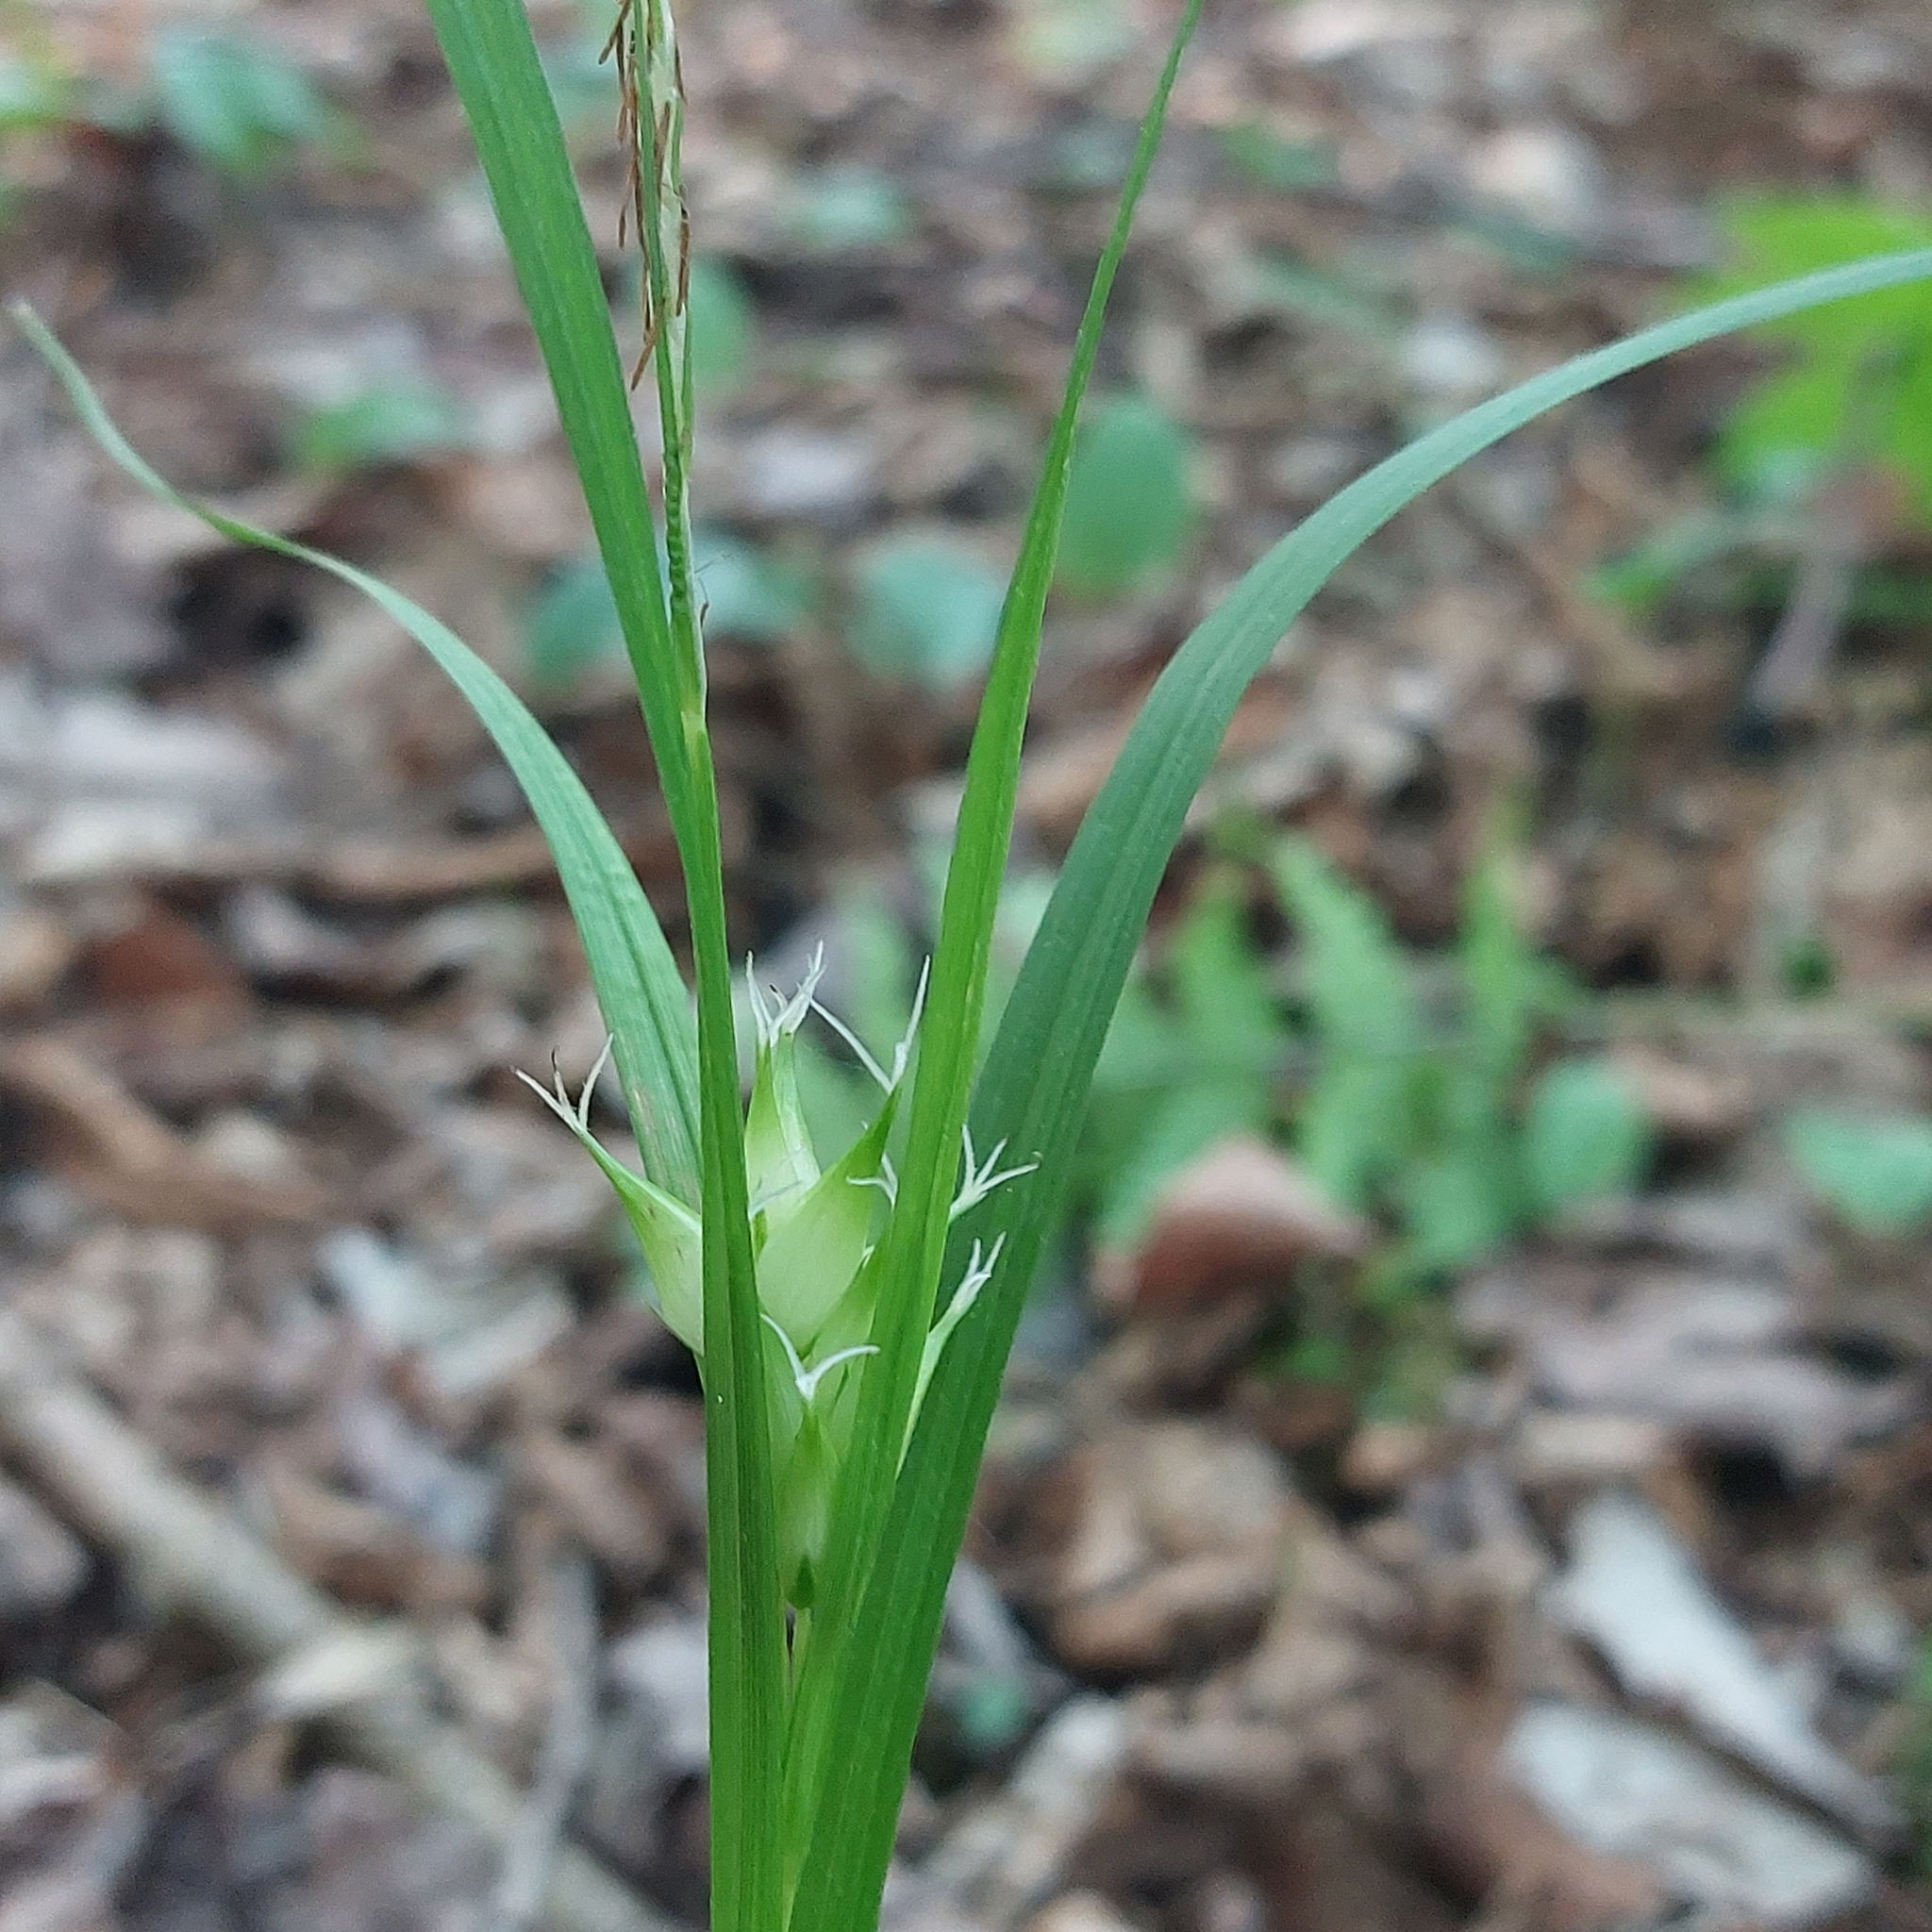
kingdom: Plantae
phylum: Tracheophyta
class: Liliopsida
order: Poales
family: Cyperaceae
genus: Carex
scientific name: Carex intumescens
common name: Greater bladder sedge
